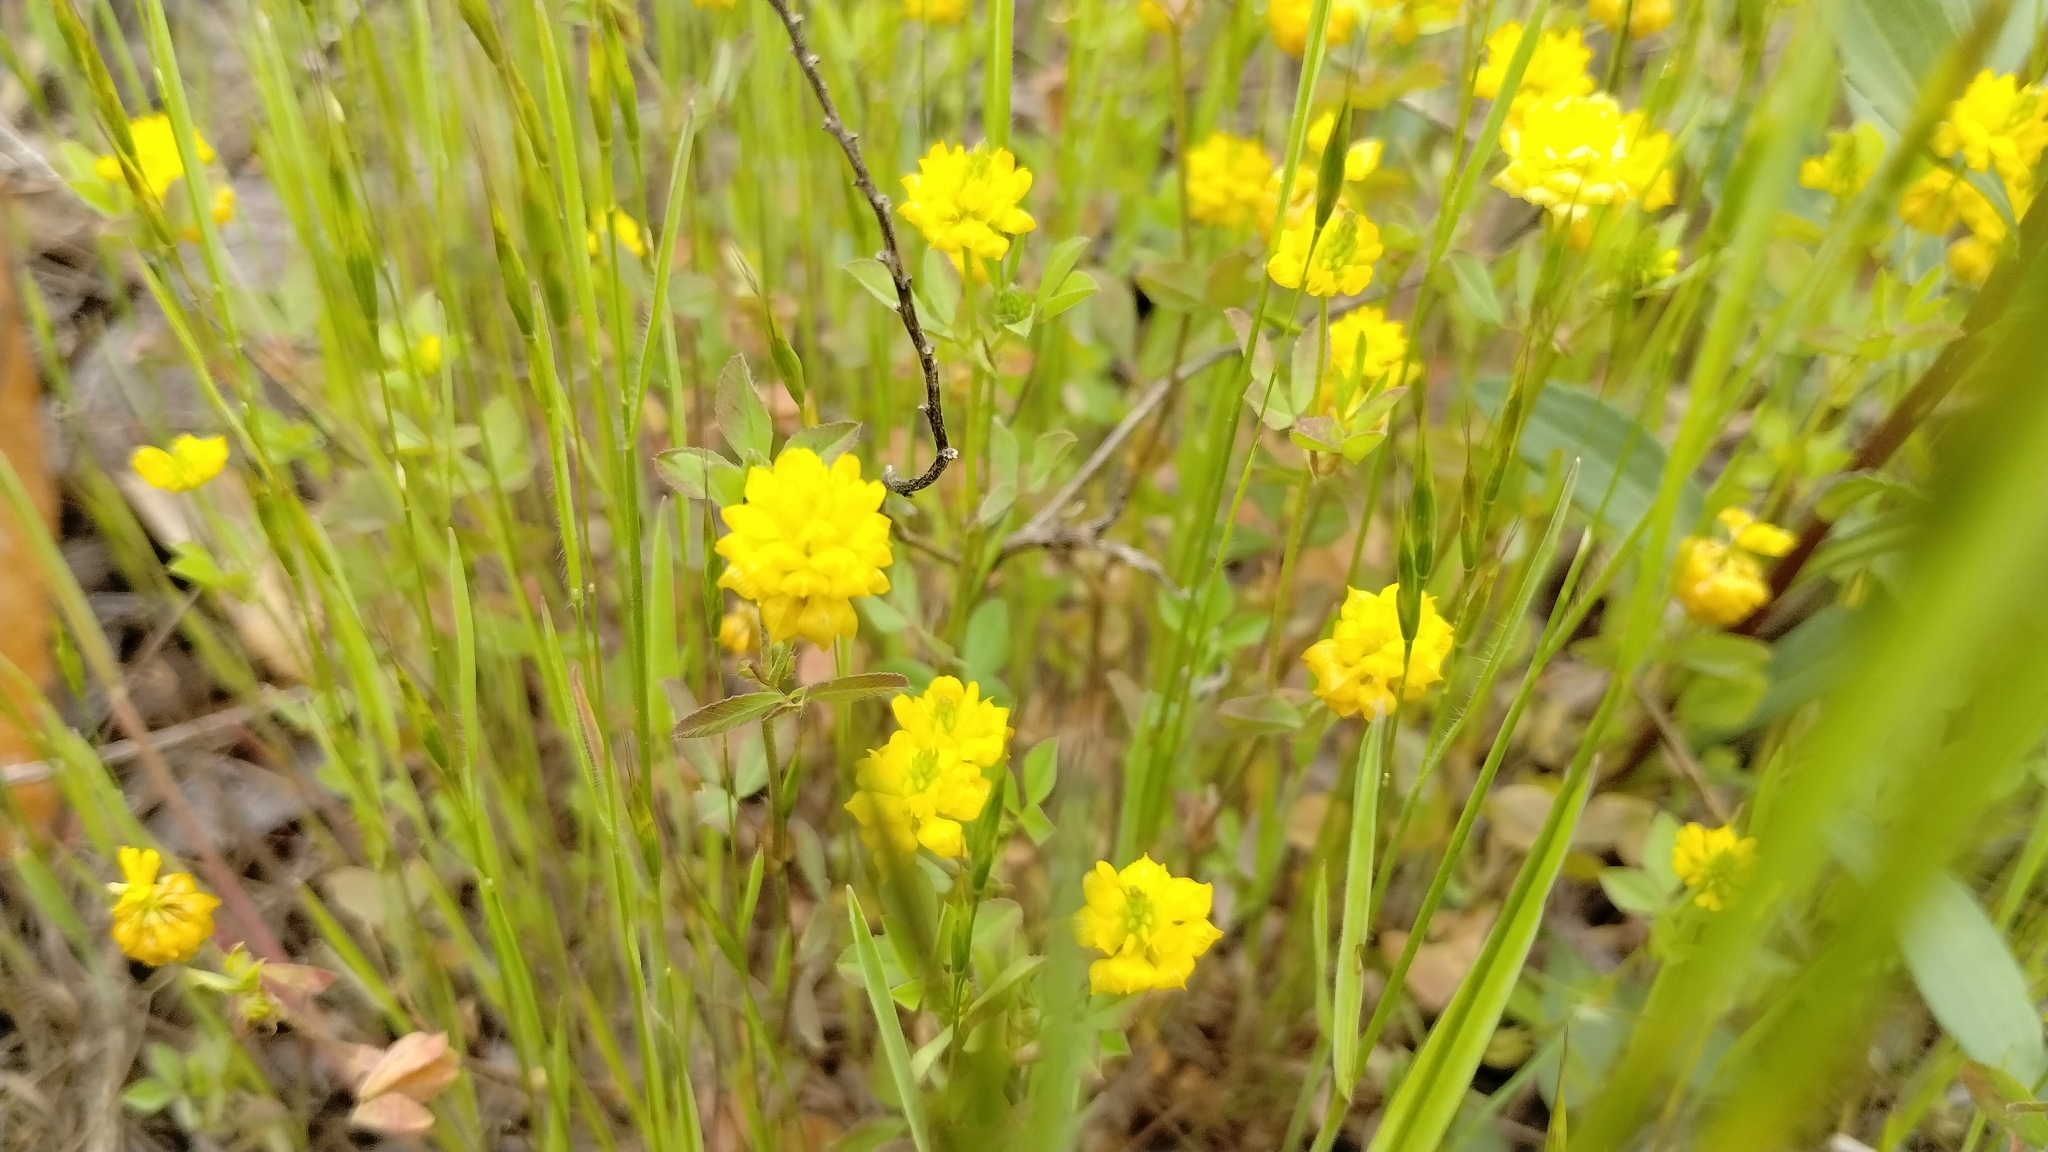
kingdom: Plantae
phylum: Tracheophyta
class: Magnoliopsida
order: Fabales
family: Fabaceae
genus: Trifolium
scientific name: Trifolium campestre
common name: Field clover
